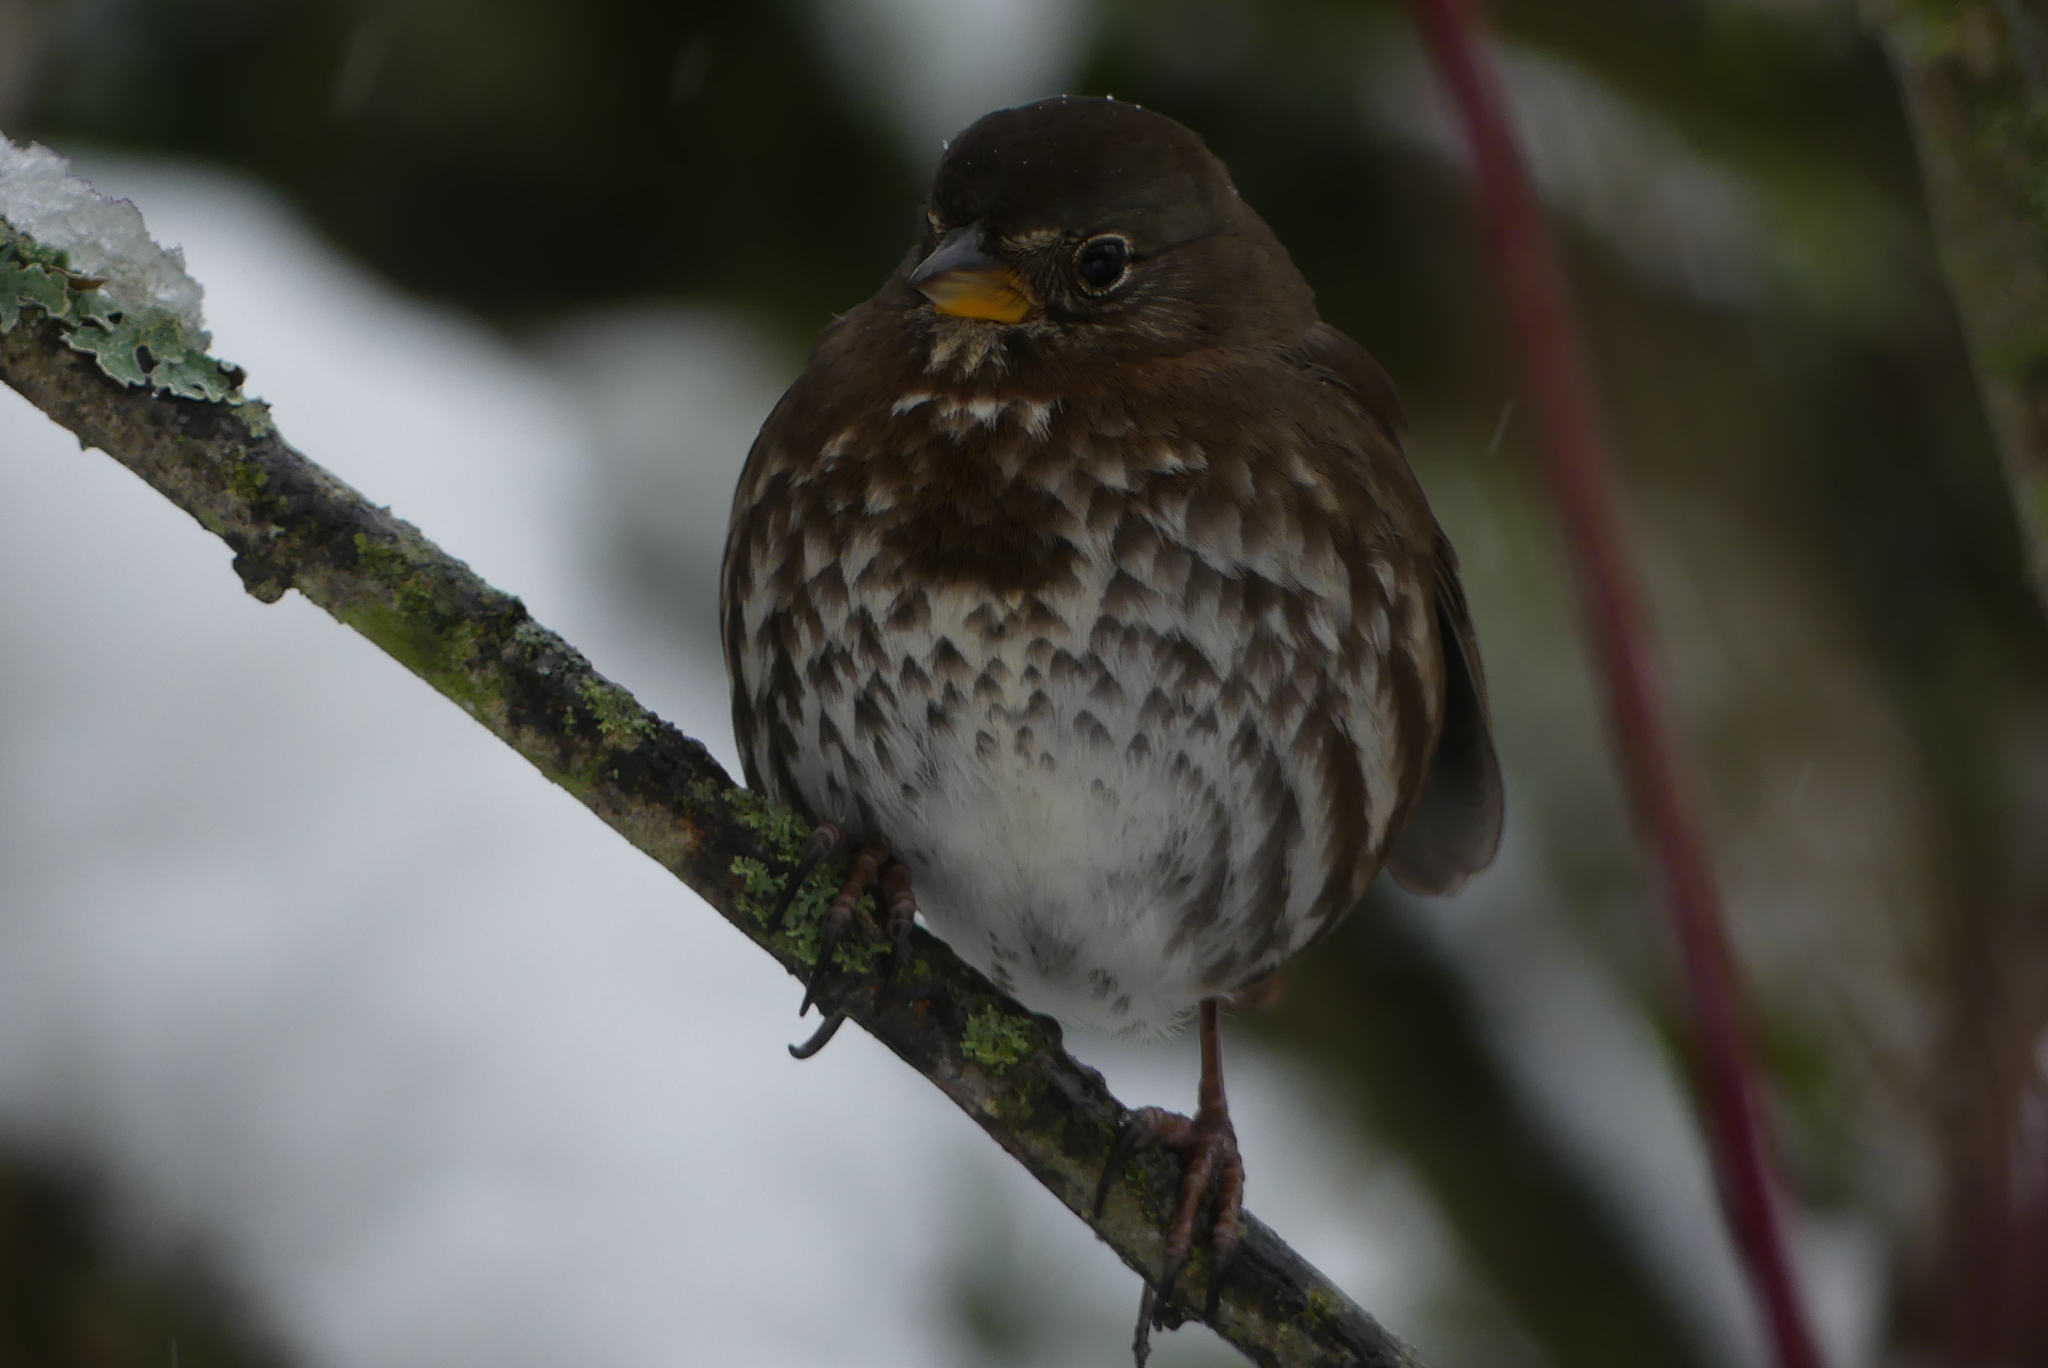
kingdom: Animalia
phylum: Chordata
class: Aves
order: Passeriformes
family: Passerellidae
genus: Passerella
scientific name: Passerella iliaca
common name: Fox sparrow
